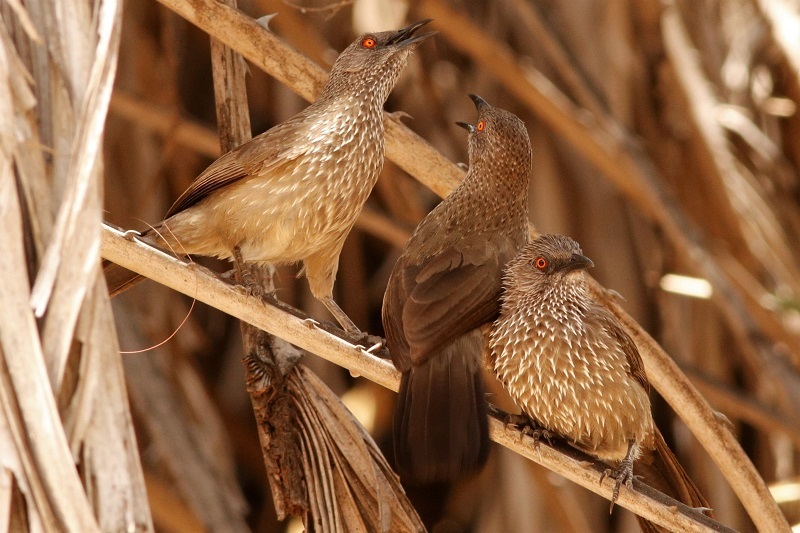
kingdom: Animalia
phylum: Chordata
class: Aves
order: Passeriformes
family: Leiothrichidae
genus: Turdoides
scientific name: Turdoides jardineii
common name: Arrow-marked babbler
